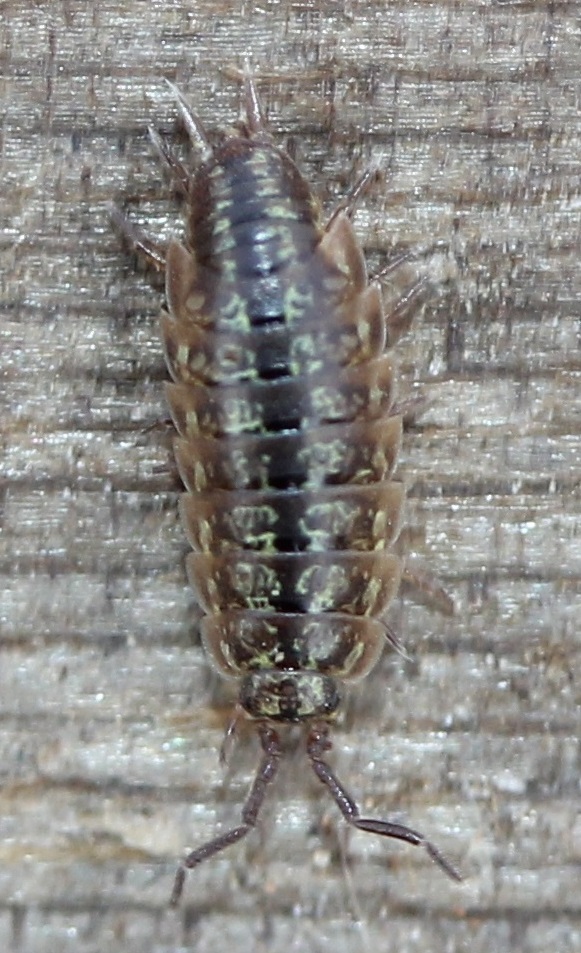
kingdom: Animalia
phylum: Arthropoda
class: Malacostraca
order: Isopoda
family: Halophilosciidae
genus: Littorophiloscia
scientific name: Littorophiloscia vittata
